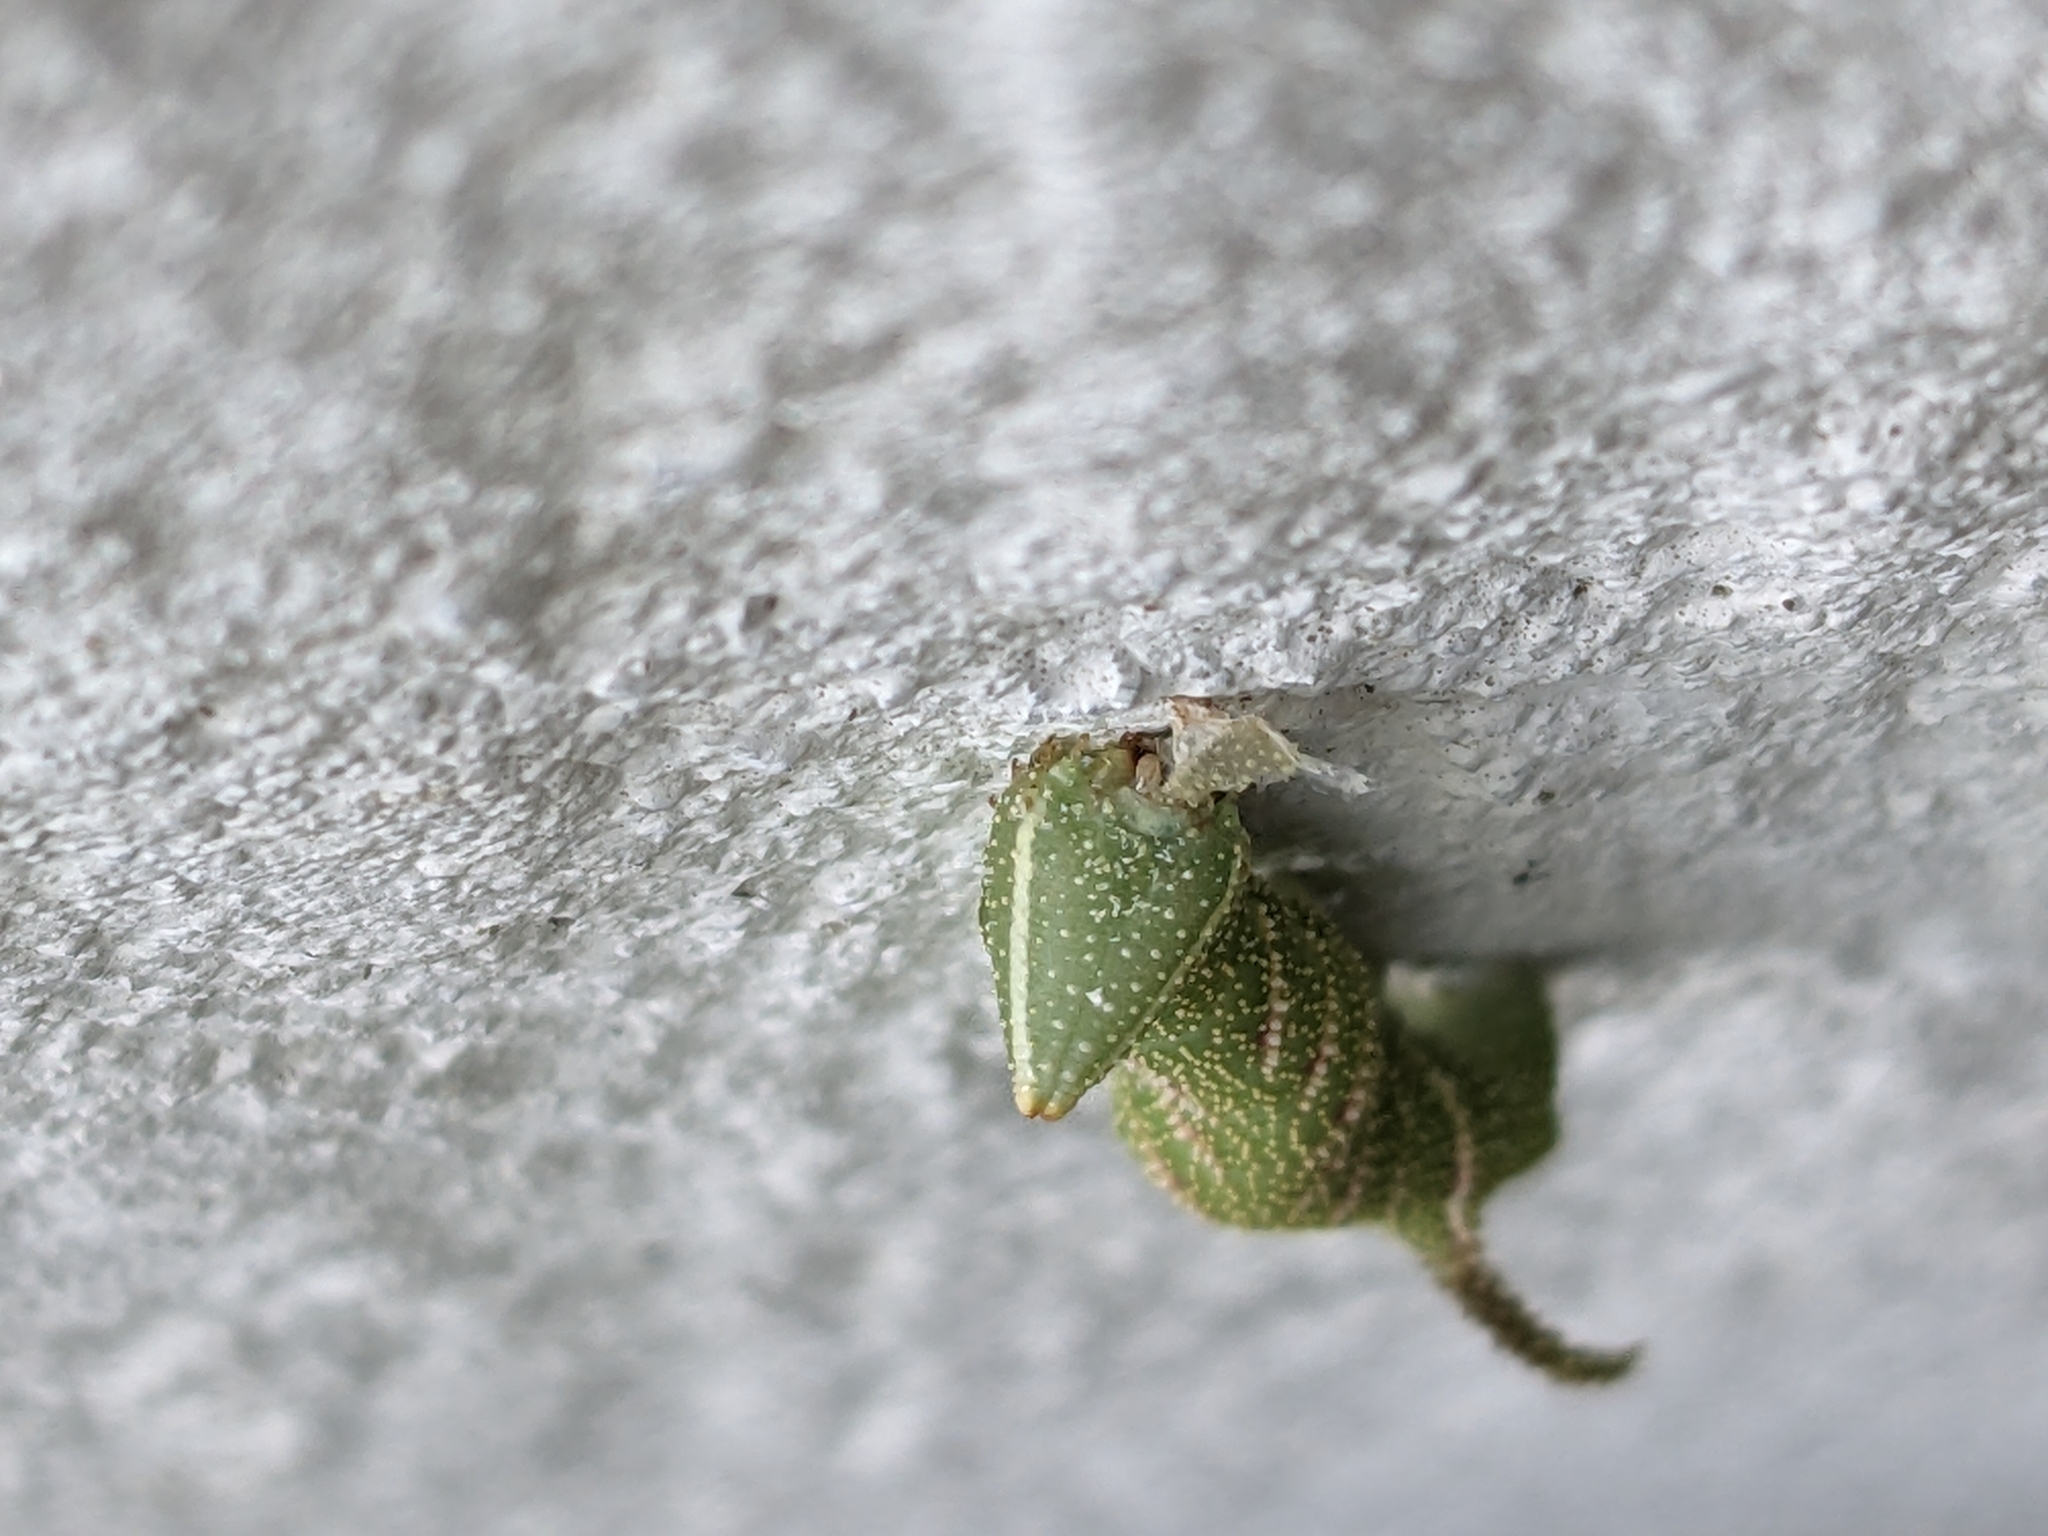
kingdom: Animalia
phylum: Arthropoda
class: Insecta
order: Lepidoptera
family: Sphingidae
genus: Amorpha
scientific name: Amorpha juglandis
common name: Walnut sphinx
